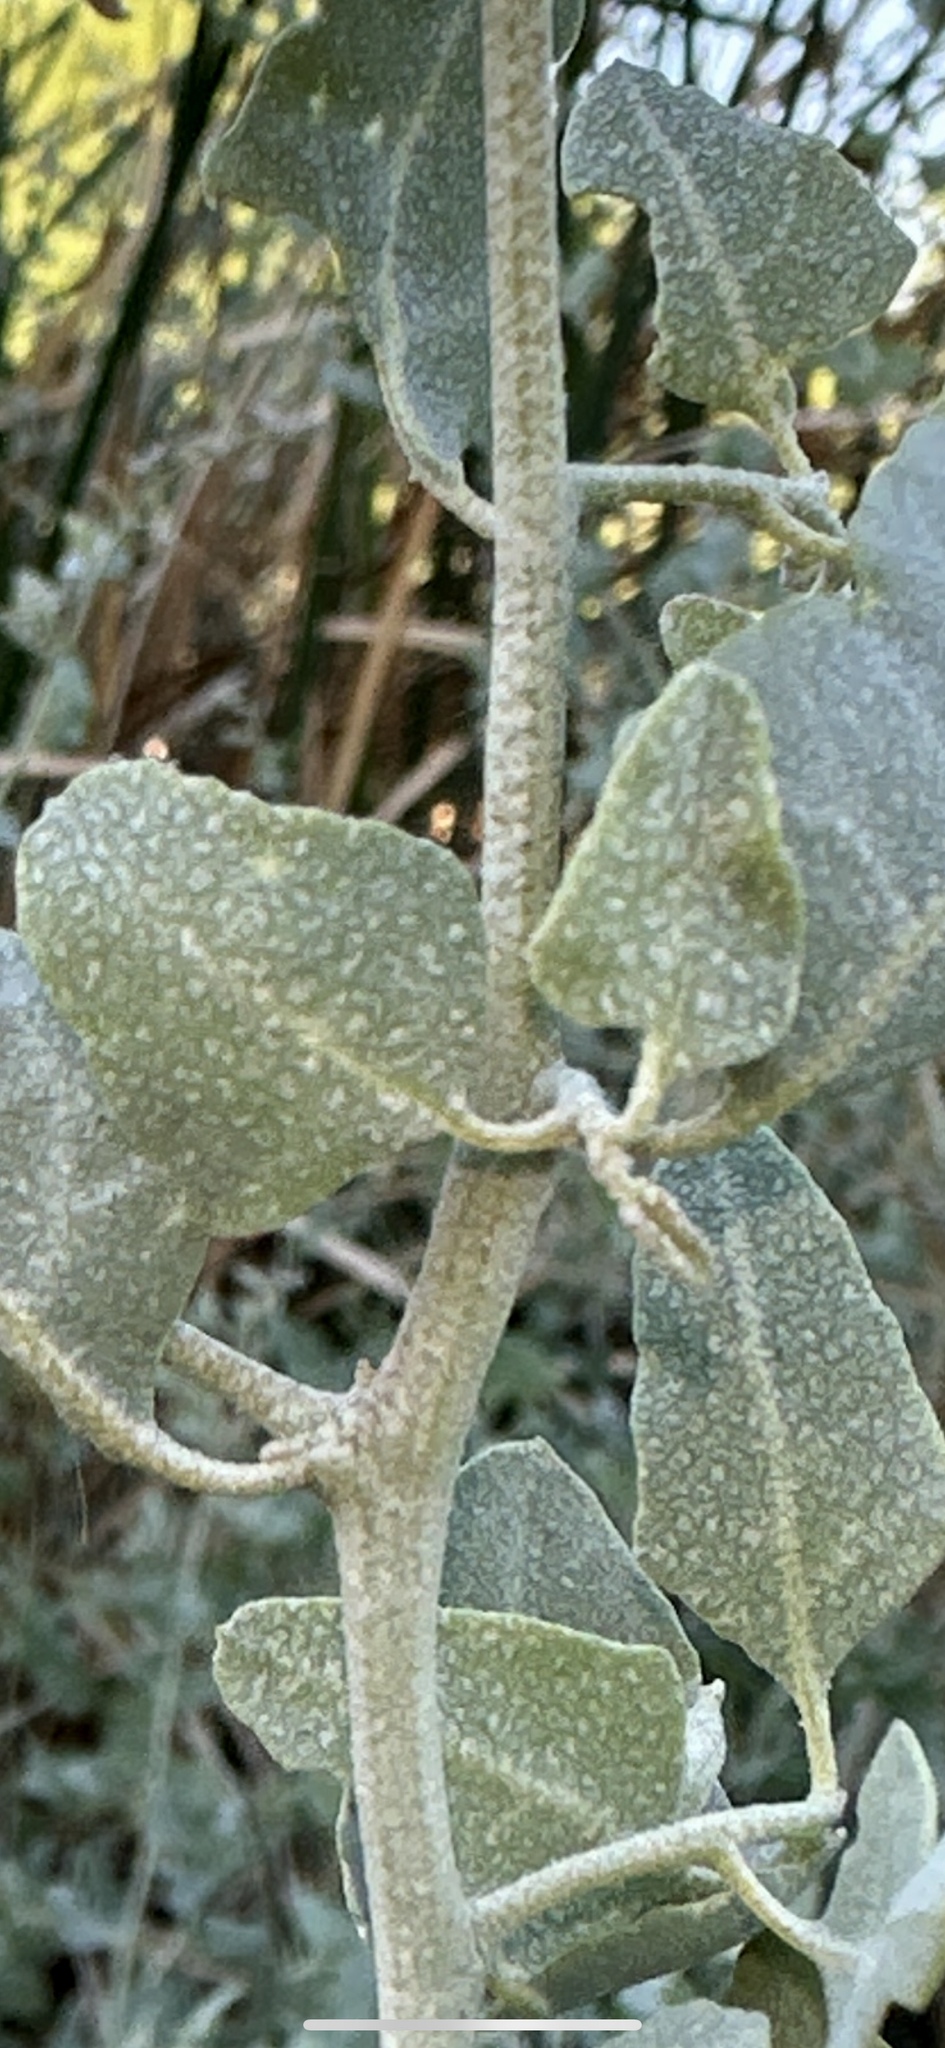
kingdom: Plantae
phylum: Tracheophyta
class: Magnoliopsida
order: Caryophyllales
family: Amaranthaceae
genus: Atriplex
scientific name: Atriplex lentiformis
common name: Big saltbush
